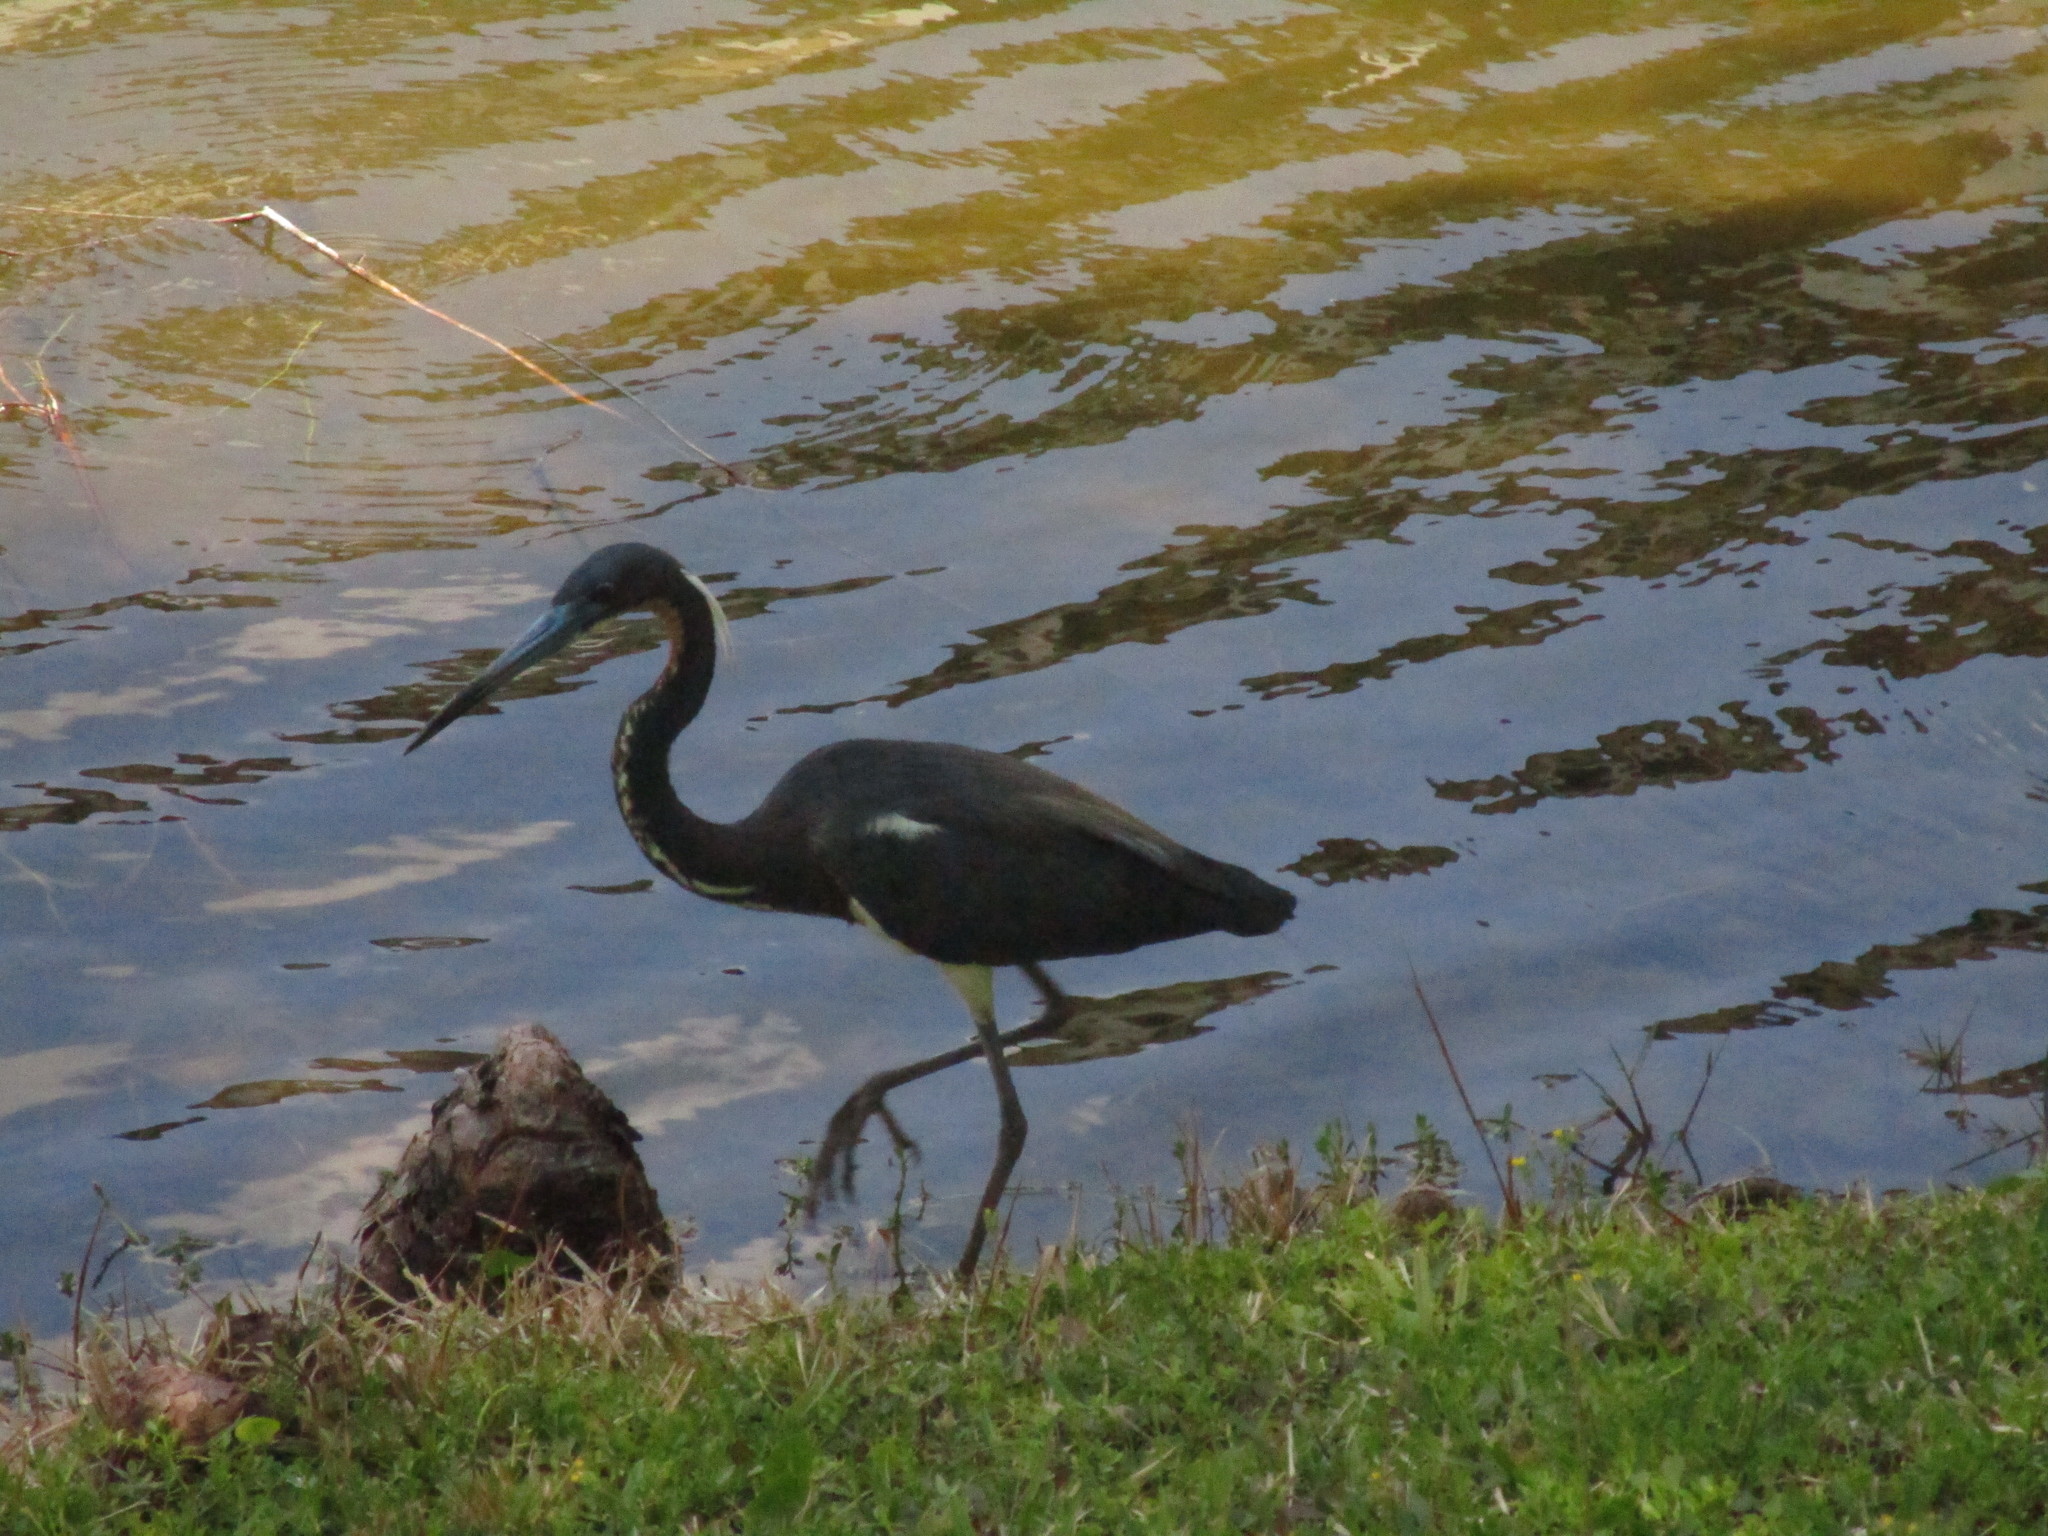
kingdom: Animalia
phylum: Chordata
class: Aves
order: Pelecaniformes
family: Ardeidae
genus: Egretta
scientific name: Egretta tricolor
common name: Tricolored heron
